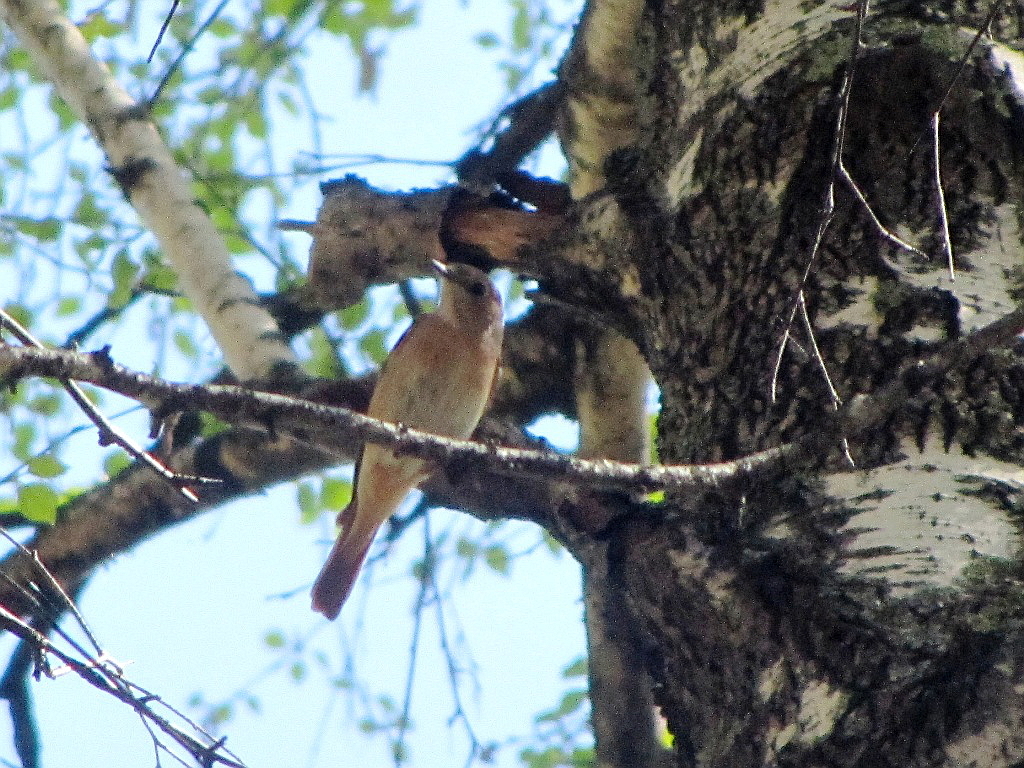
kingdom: Animalia
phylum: Chordata
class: Aves
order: Passeriformes
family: Muscicapidae
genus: Phoenicurus
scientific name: Phoenicurus phoenicurus
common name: Common redstart
